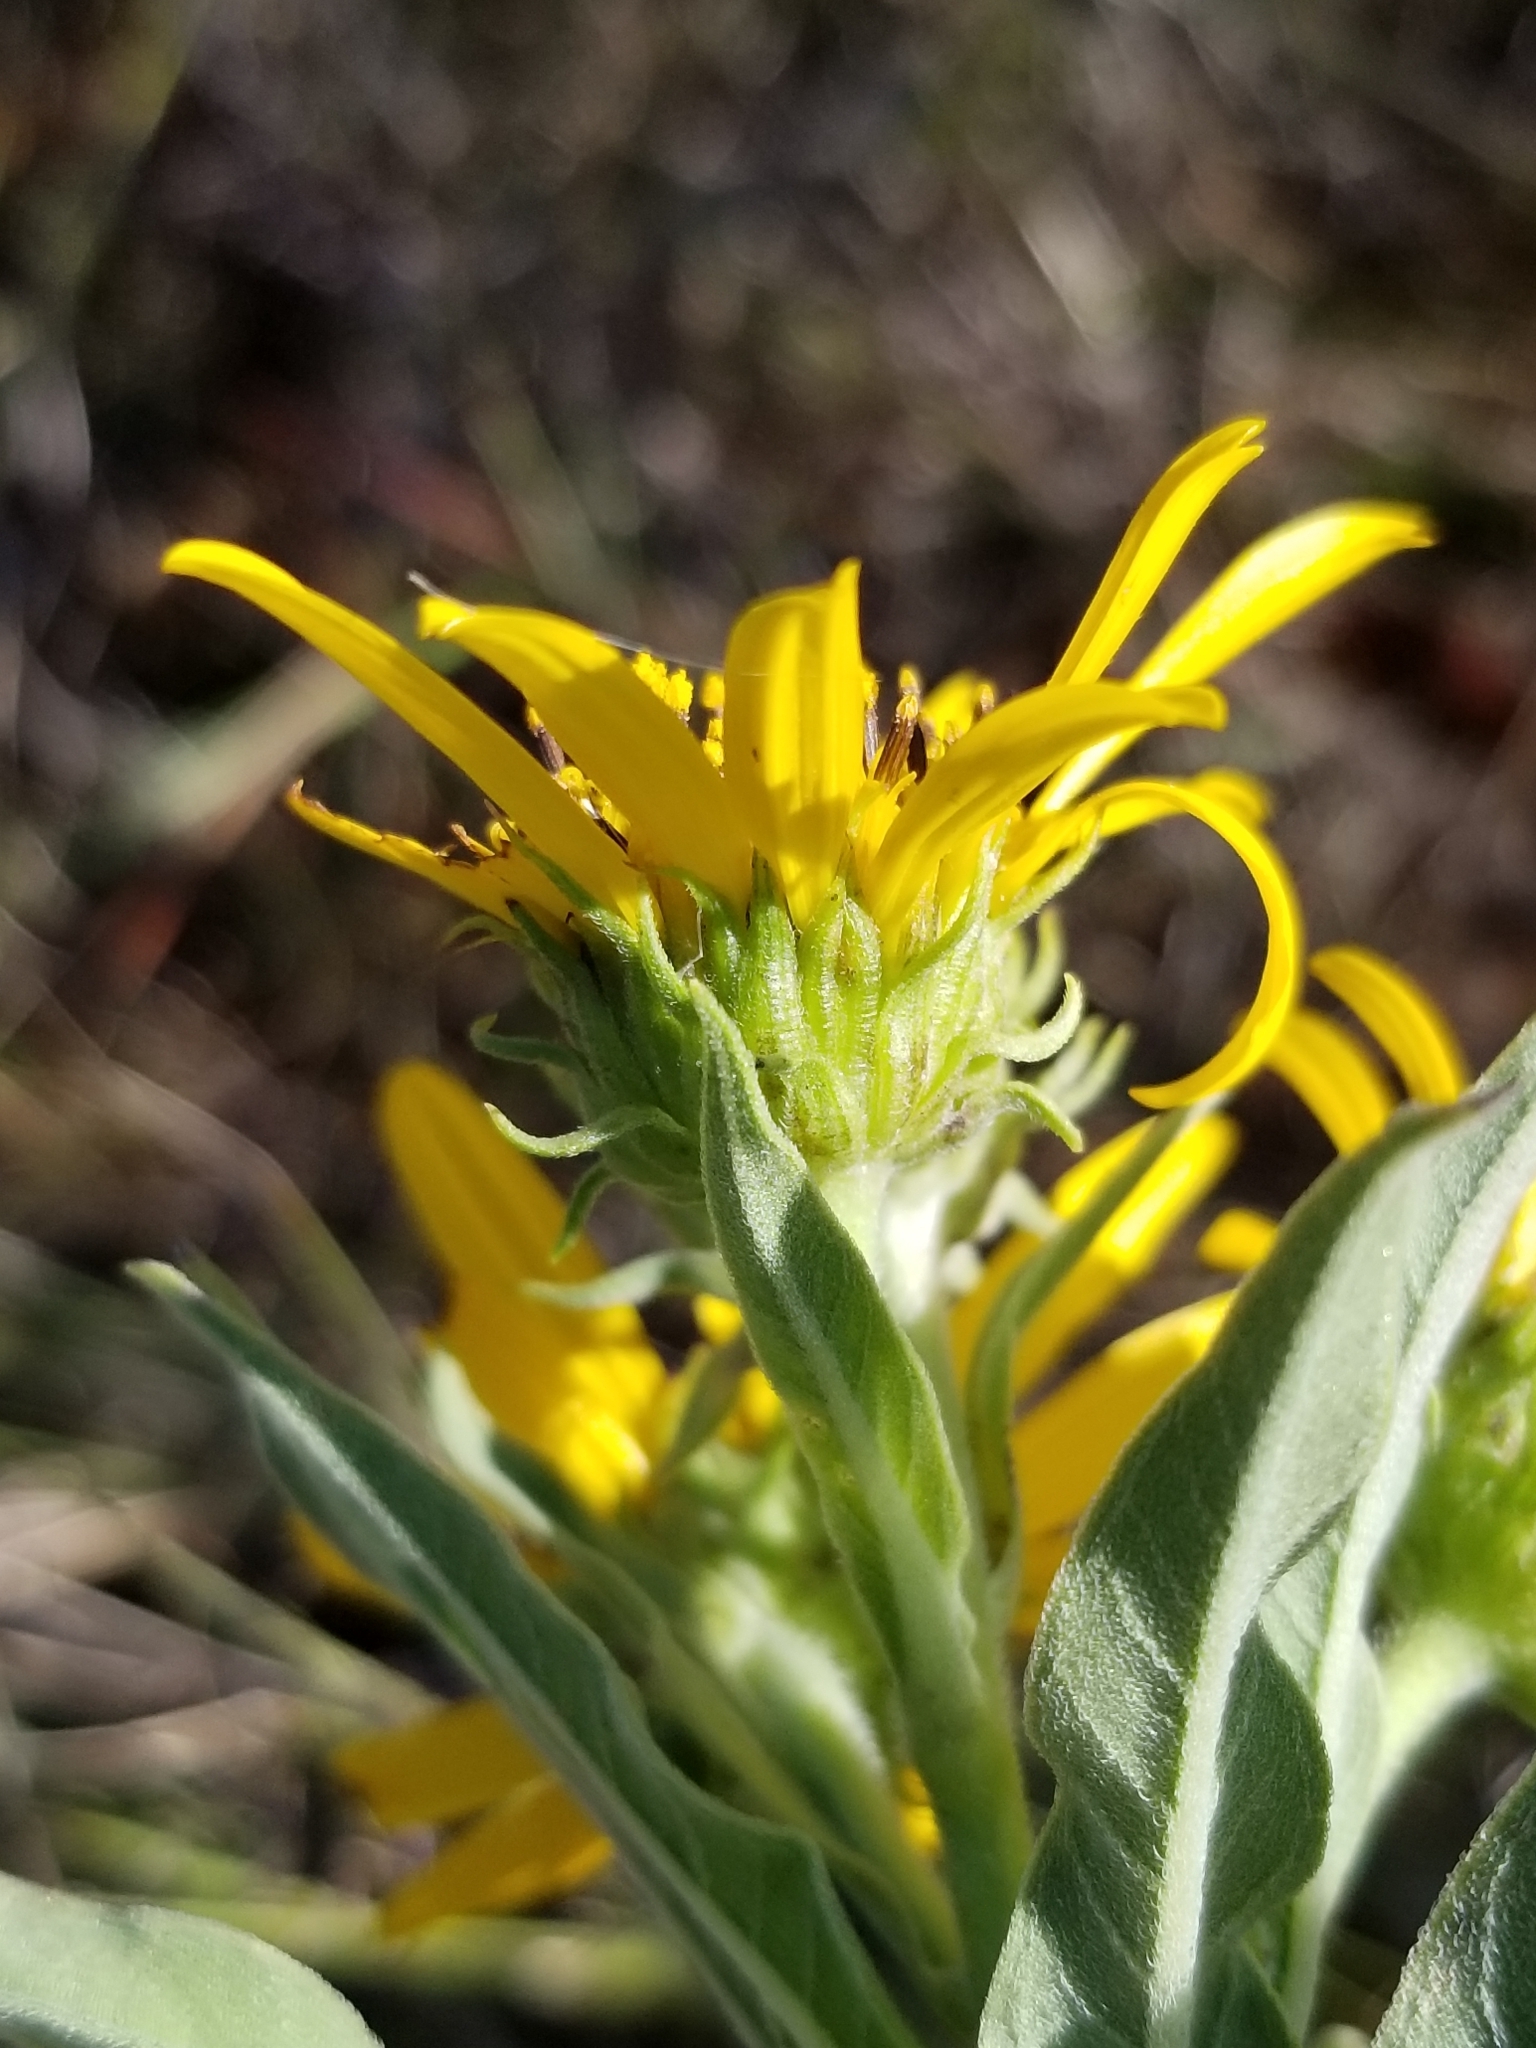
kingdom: Plantae
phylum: Tracheophyta
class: Magnoliopsida
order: Asterales
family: Asteraceae
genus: Helianthus
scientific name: Helianthus maximiliani
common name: Maximilian's sunflower
